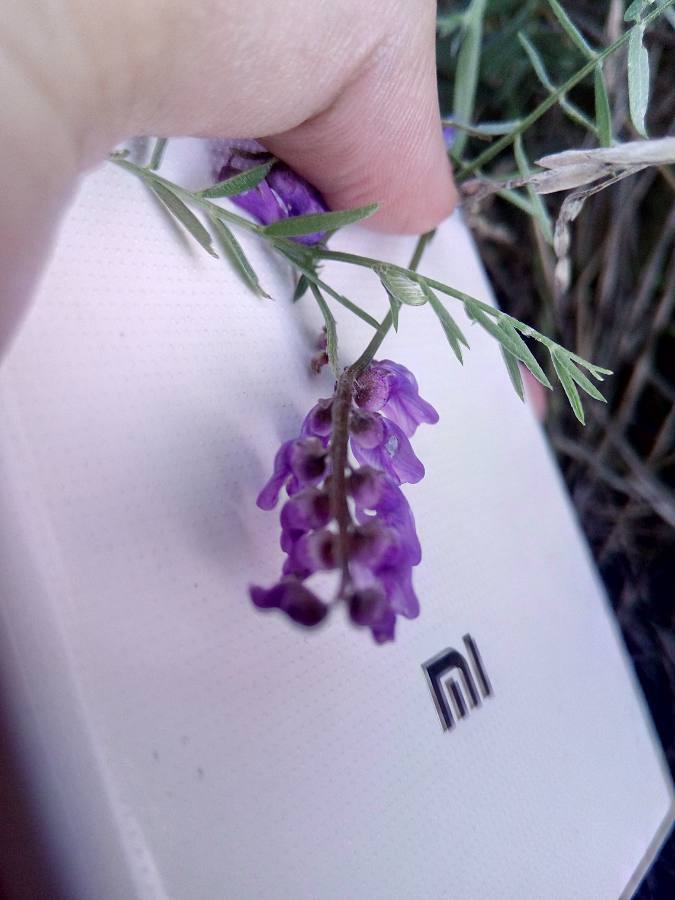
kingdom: Plantae
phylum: Tracheophyta
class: Magnoliopsida
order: Fabales
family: Fabaceae
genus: Vicia
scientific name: Vicia cracca
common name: Bird vetch
